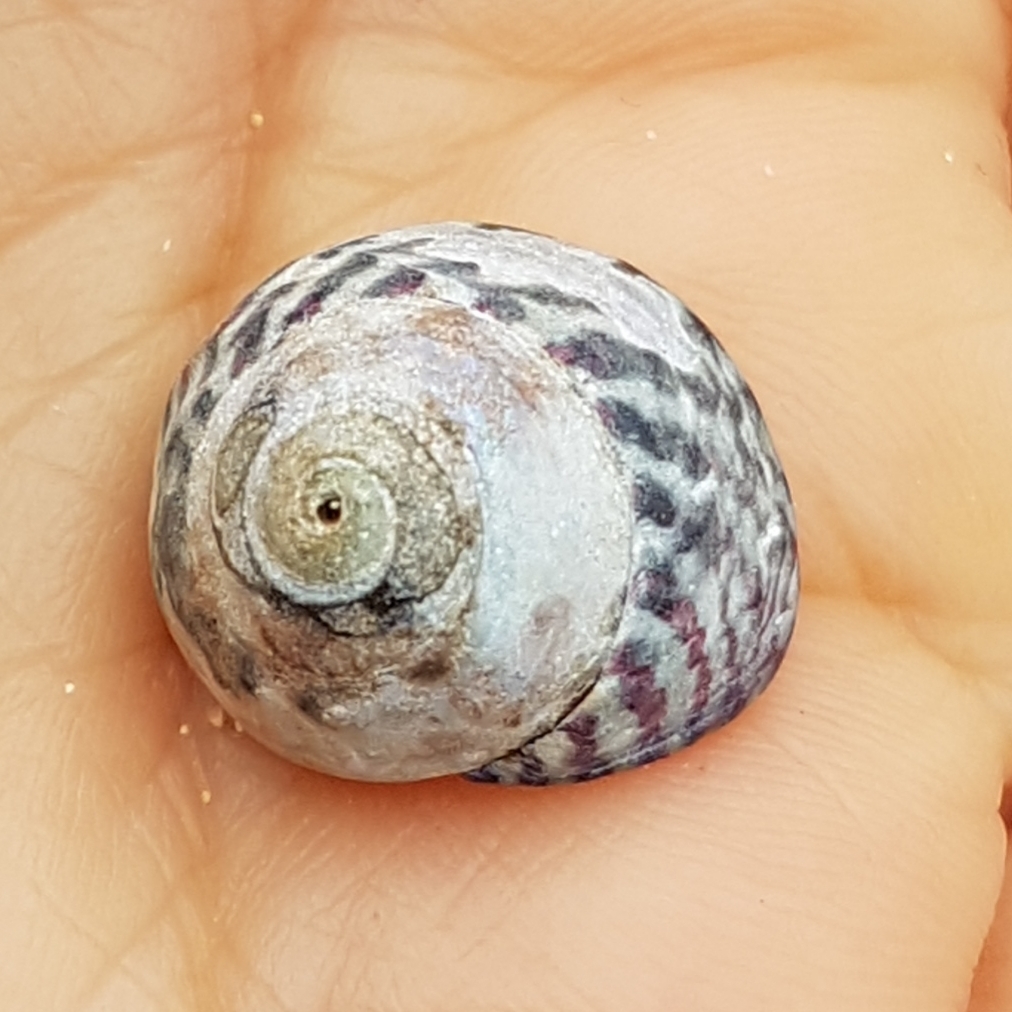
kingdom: Animalia
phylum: Mollusca
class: Gastropoda
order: Trochida
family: Trochidae
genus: Steromphala
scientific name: Steromphala umbilicalis
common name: Flat top shell
